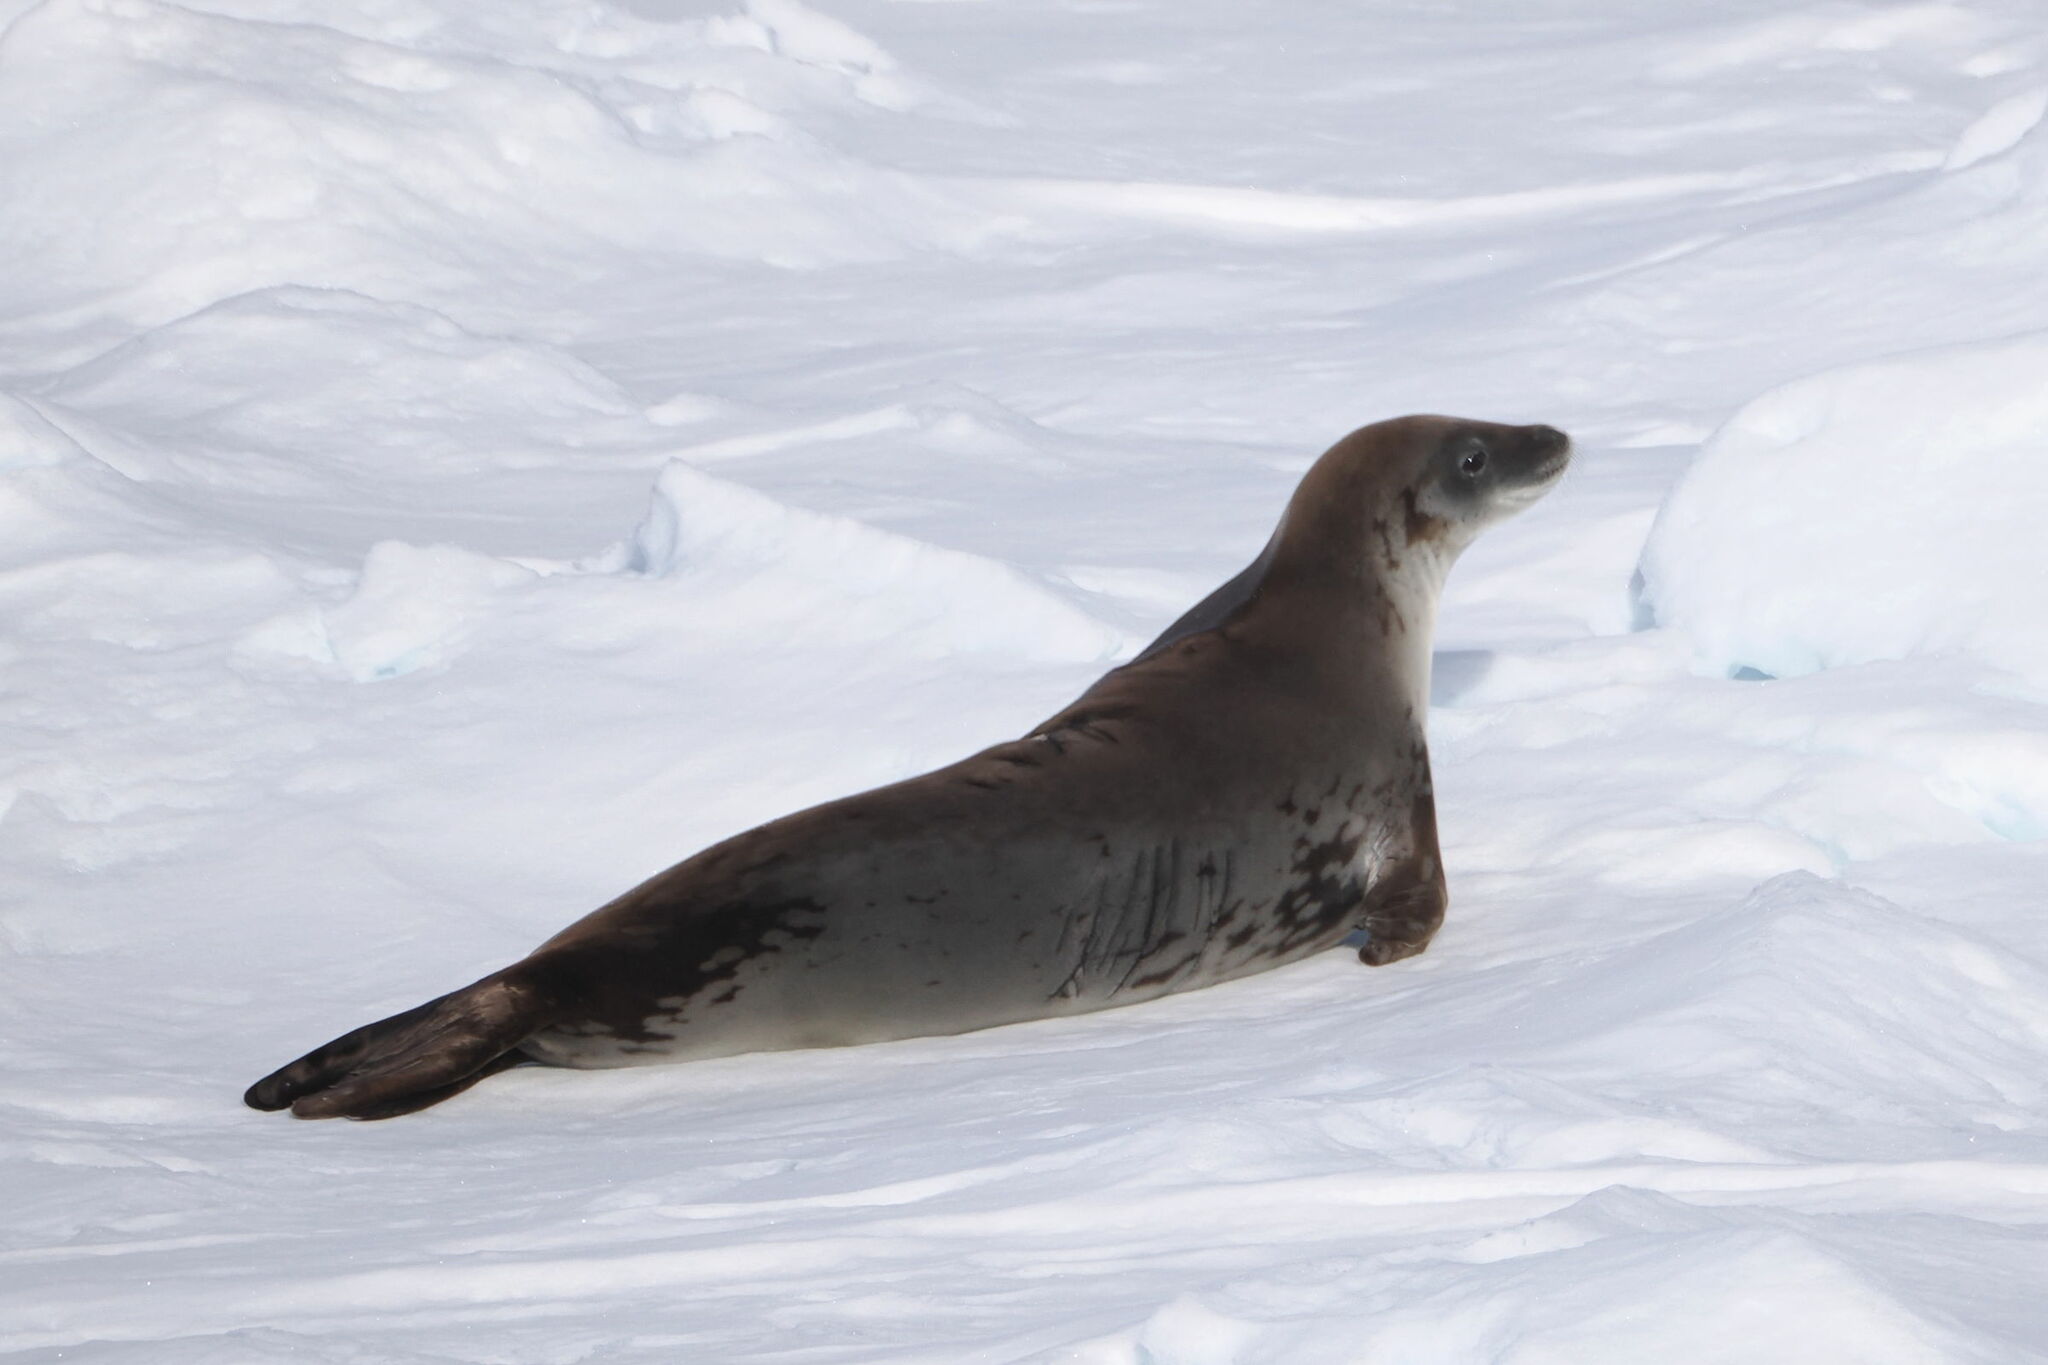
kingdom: Animalia
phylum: Chordata
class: Mammalia
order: Carnivora
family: Phocidae
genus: Lobodon
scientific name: Lobodon carcinophaga
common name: Crabeater seal
